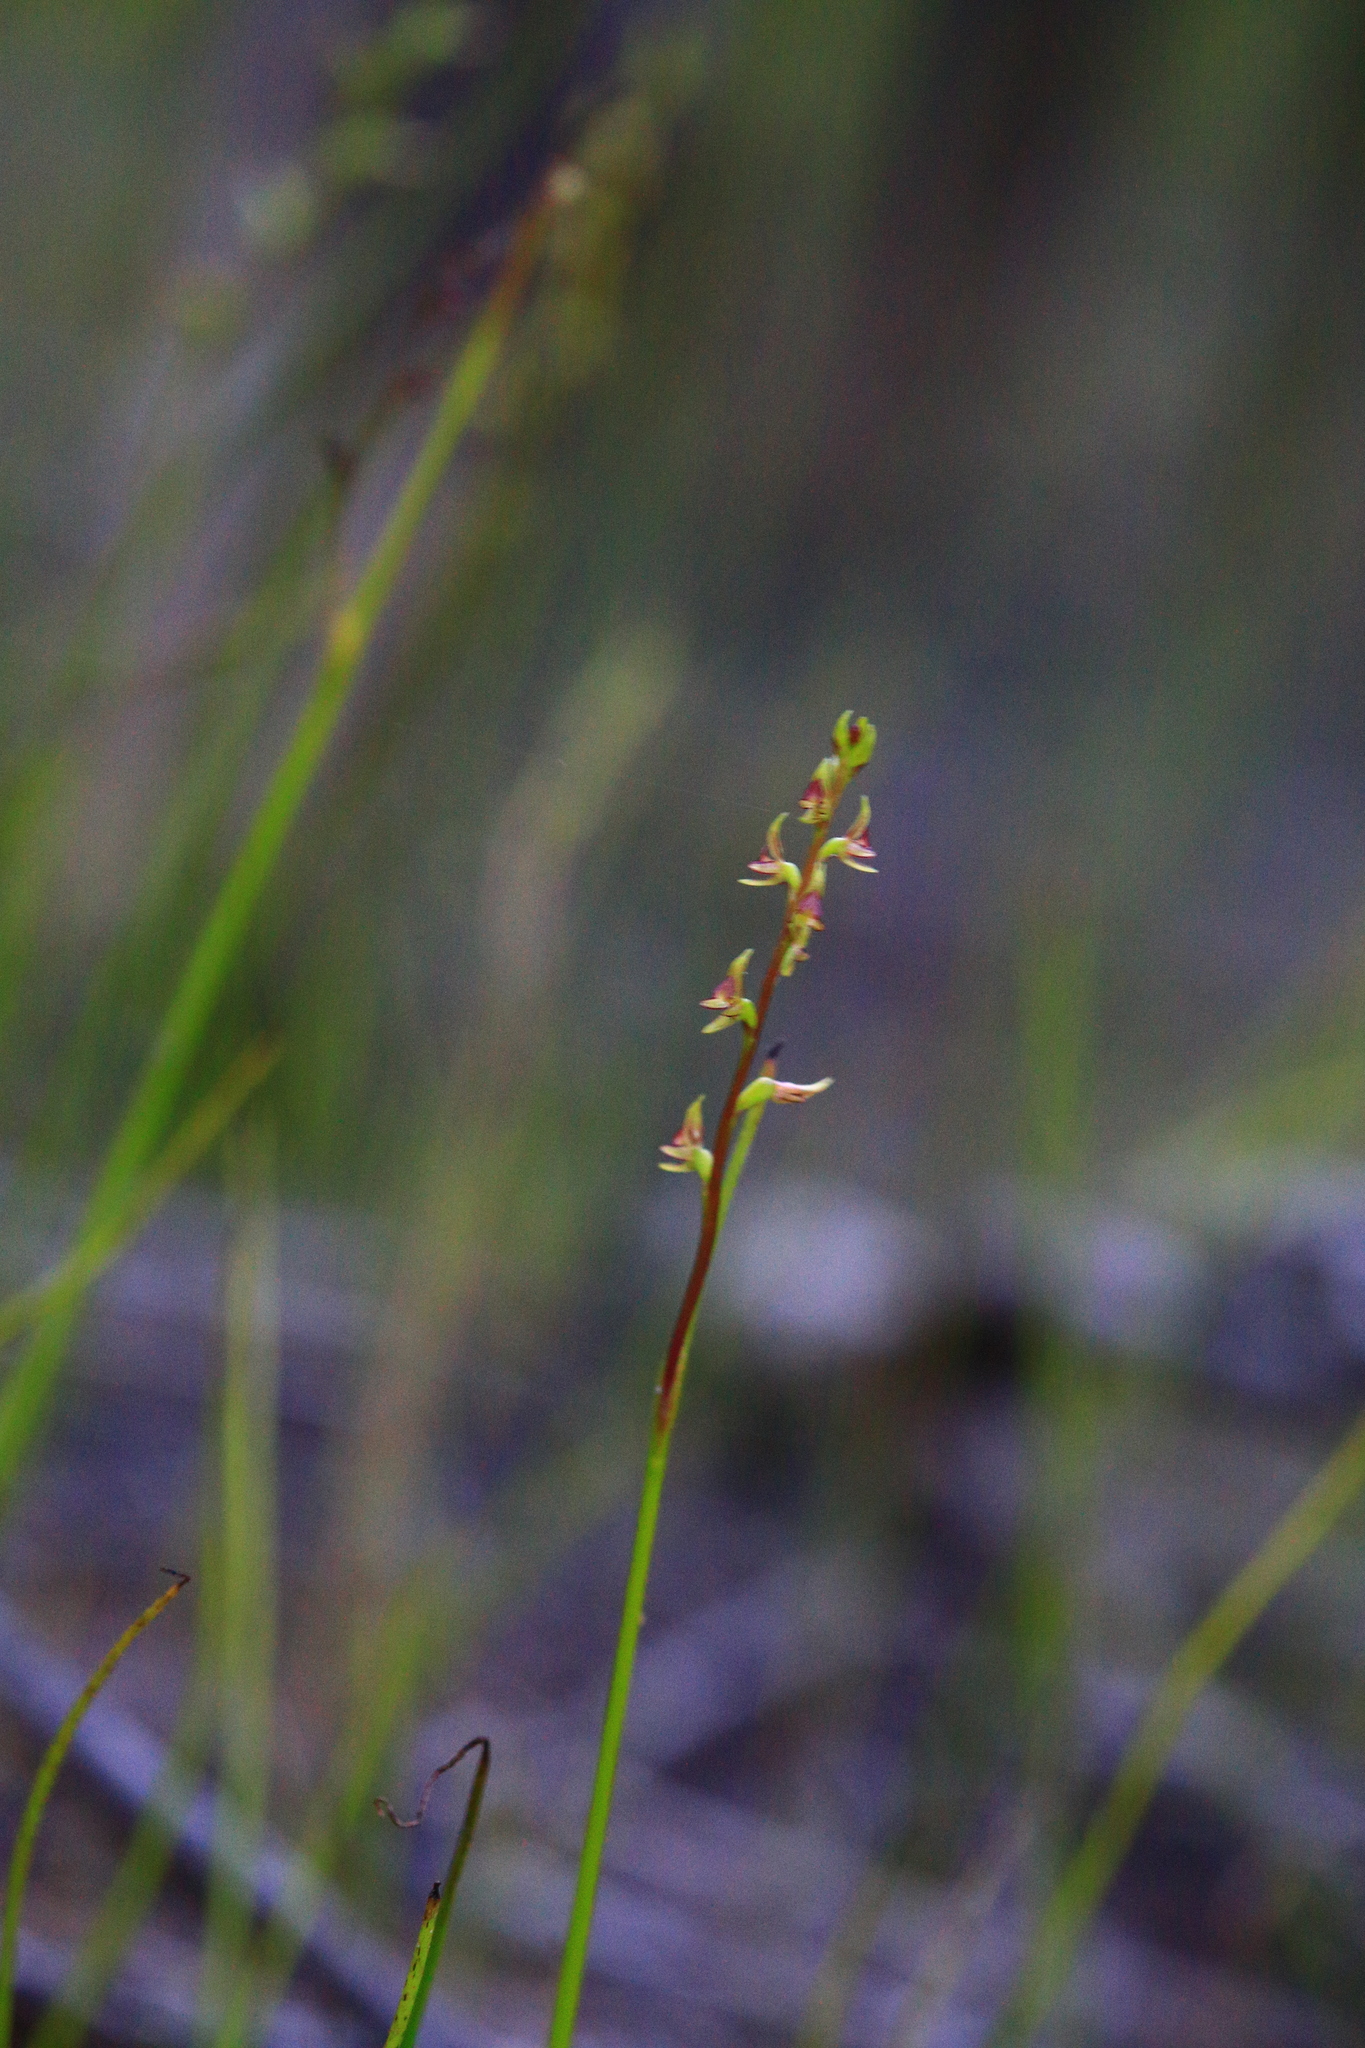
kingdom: Plantae
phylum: Tracheophyta
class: Liliopsida
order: Asparagales
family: Orchidaceae
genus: Prasophyllum
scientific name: Prasophyllum macrostachyum
